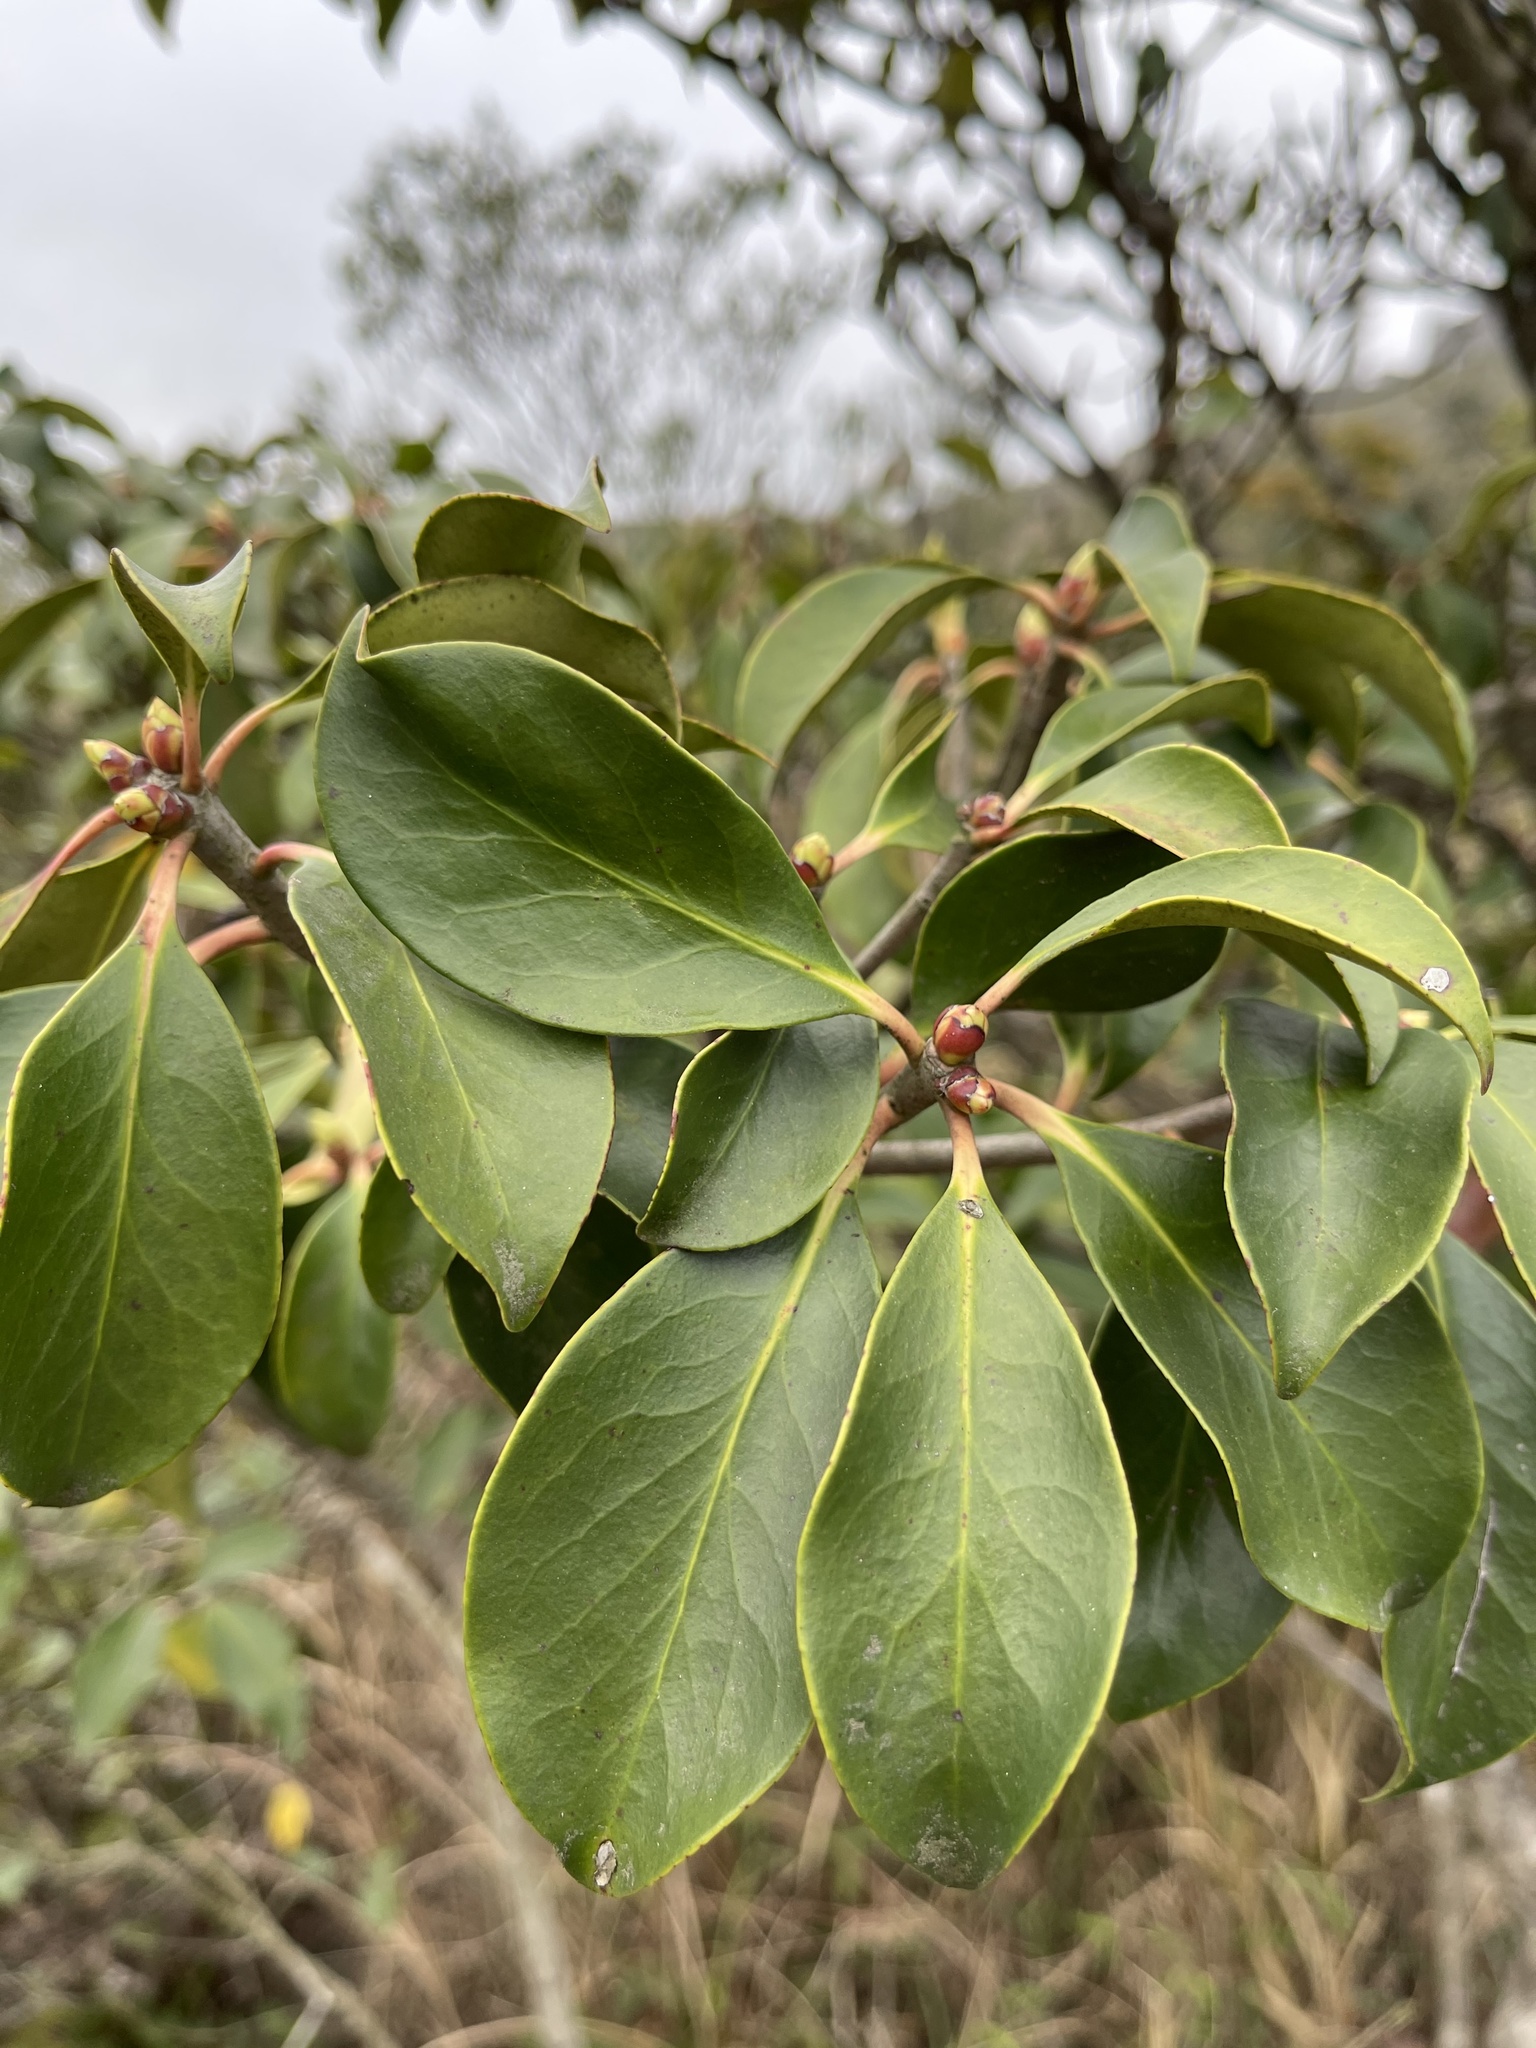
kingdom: Plantae
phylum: Tracheophyta
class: Magnoliopsida
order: Ericales
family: Pentaphylacaceae
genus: Ternstroemia
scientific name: Ternstroemia gymnanthera
